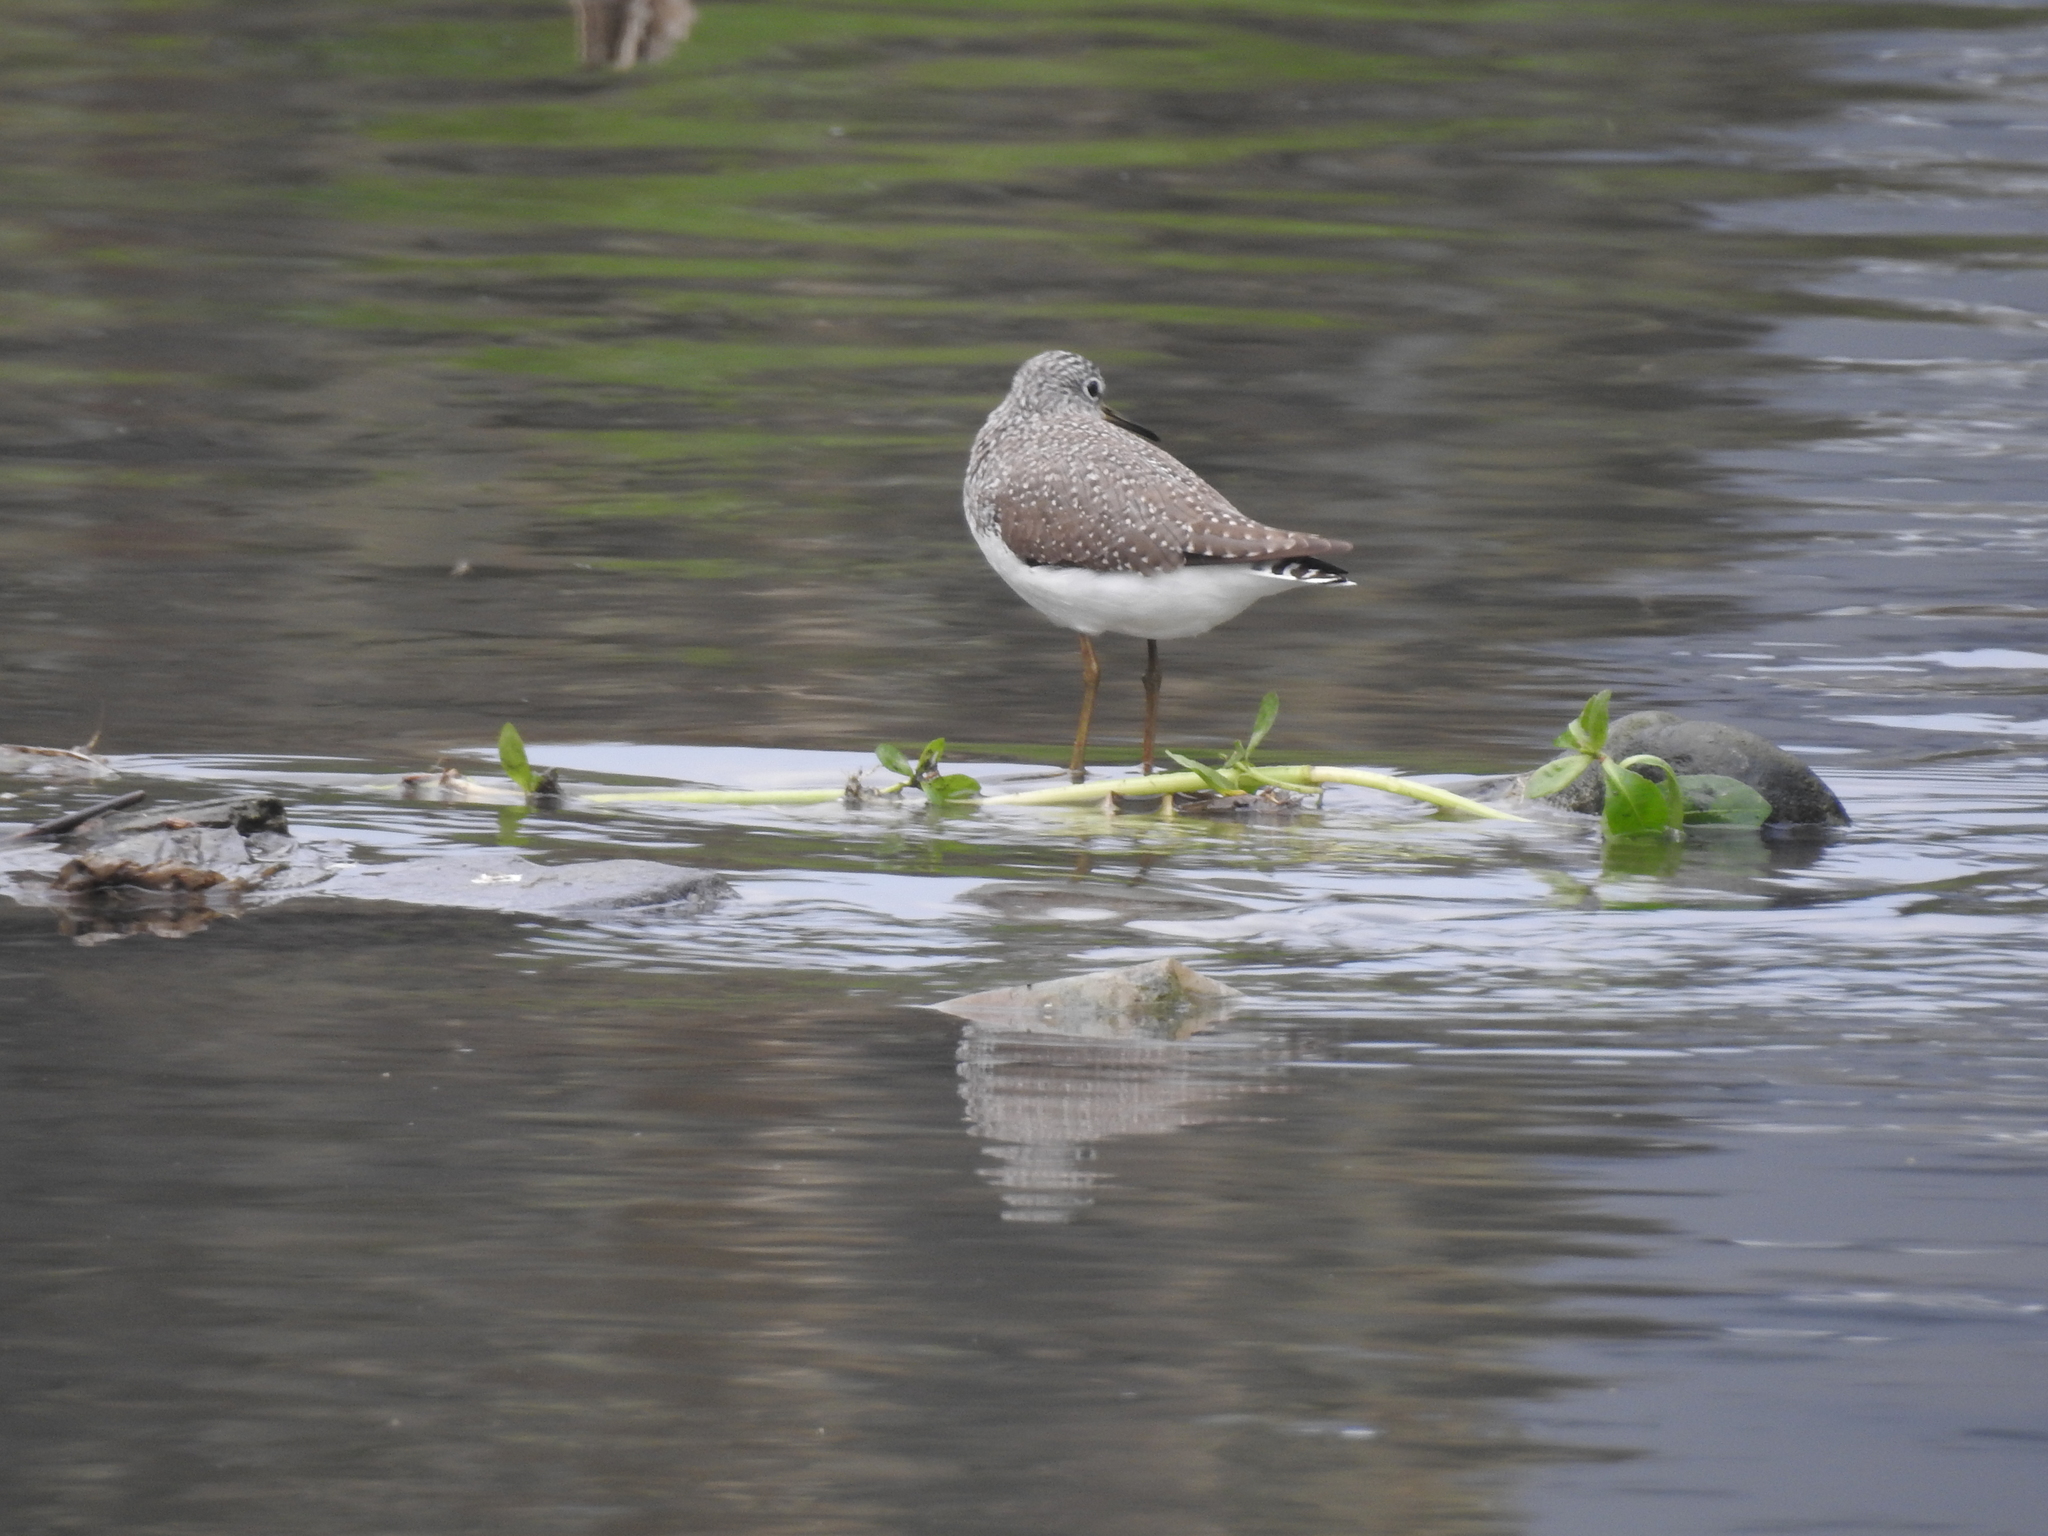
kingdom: Animalia
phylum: Chordata
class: Aves
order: Charadriiformes
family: Scolopacidae
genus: Tringa
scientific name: Tringa ochropus
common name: Green sandpiper
